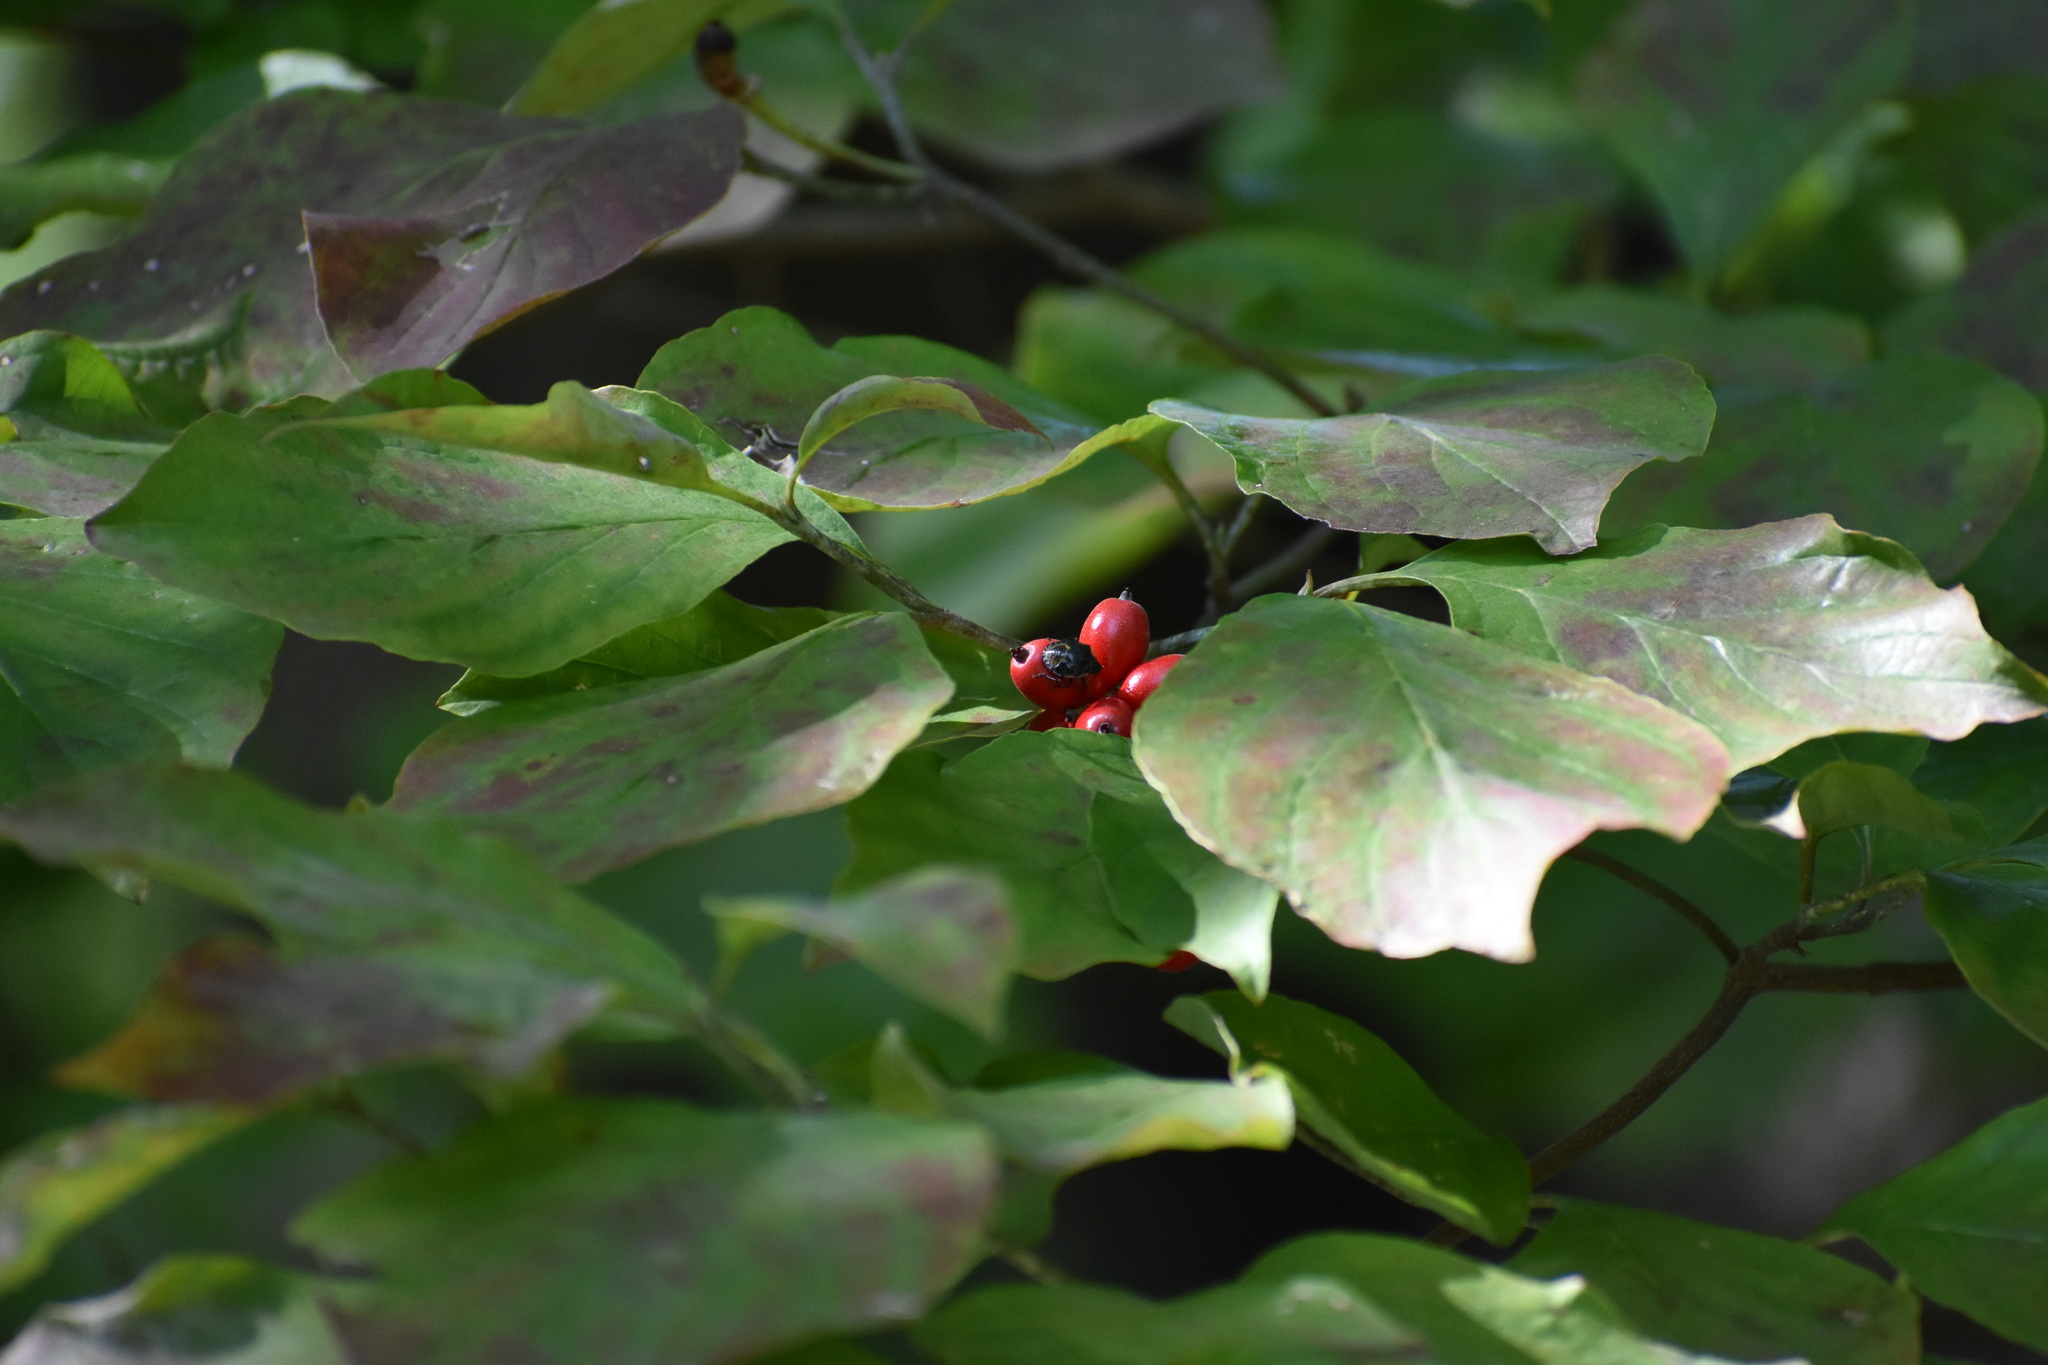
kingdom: Plantae
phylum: Tracheophyta
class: Magnoliopsida
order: Cornales
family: Cornaceae
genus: Cornus
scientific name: Cornus florida
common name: Flowering dogwood
